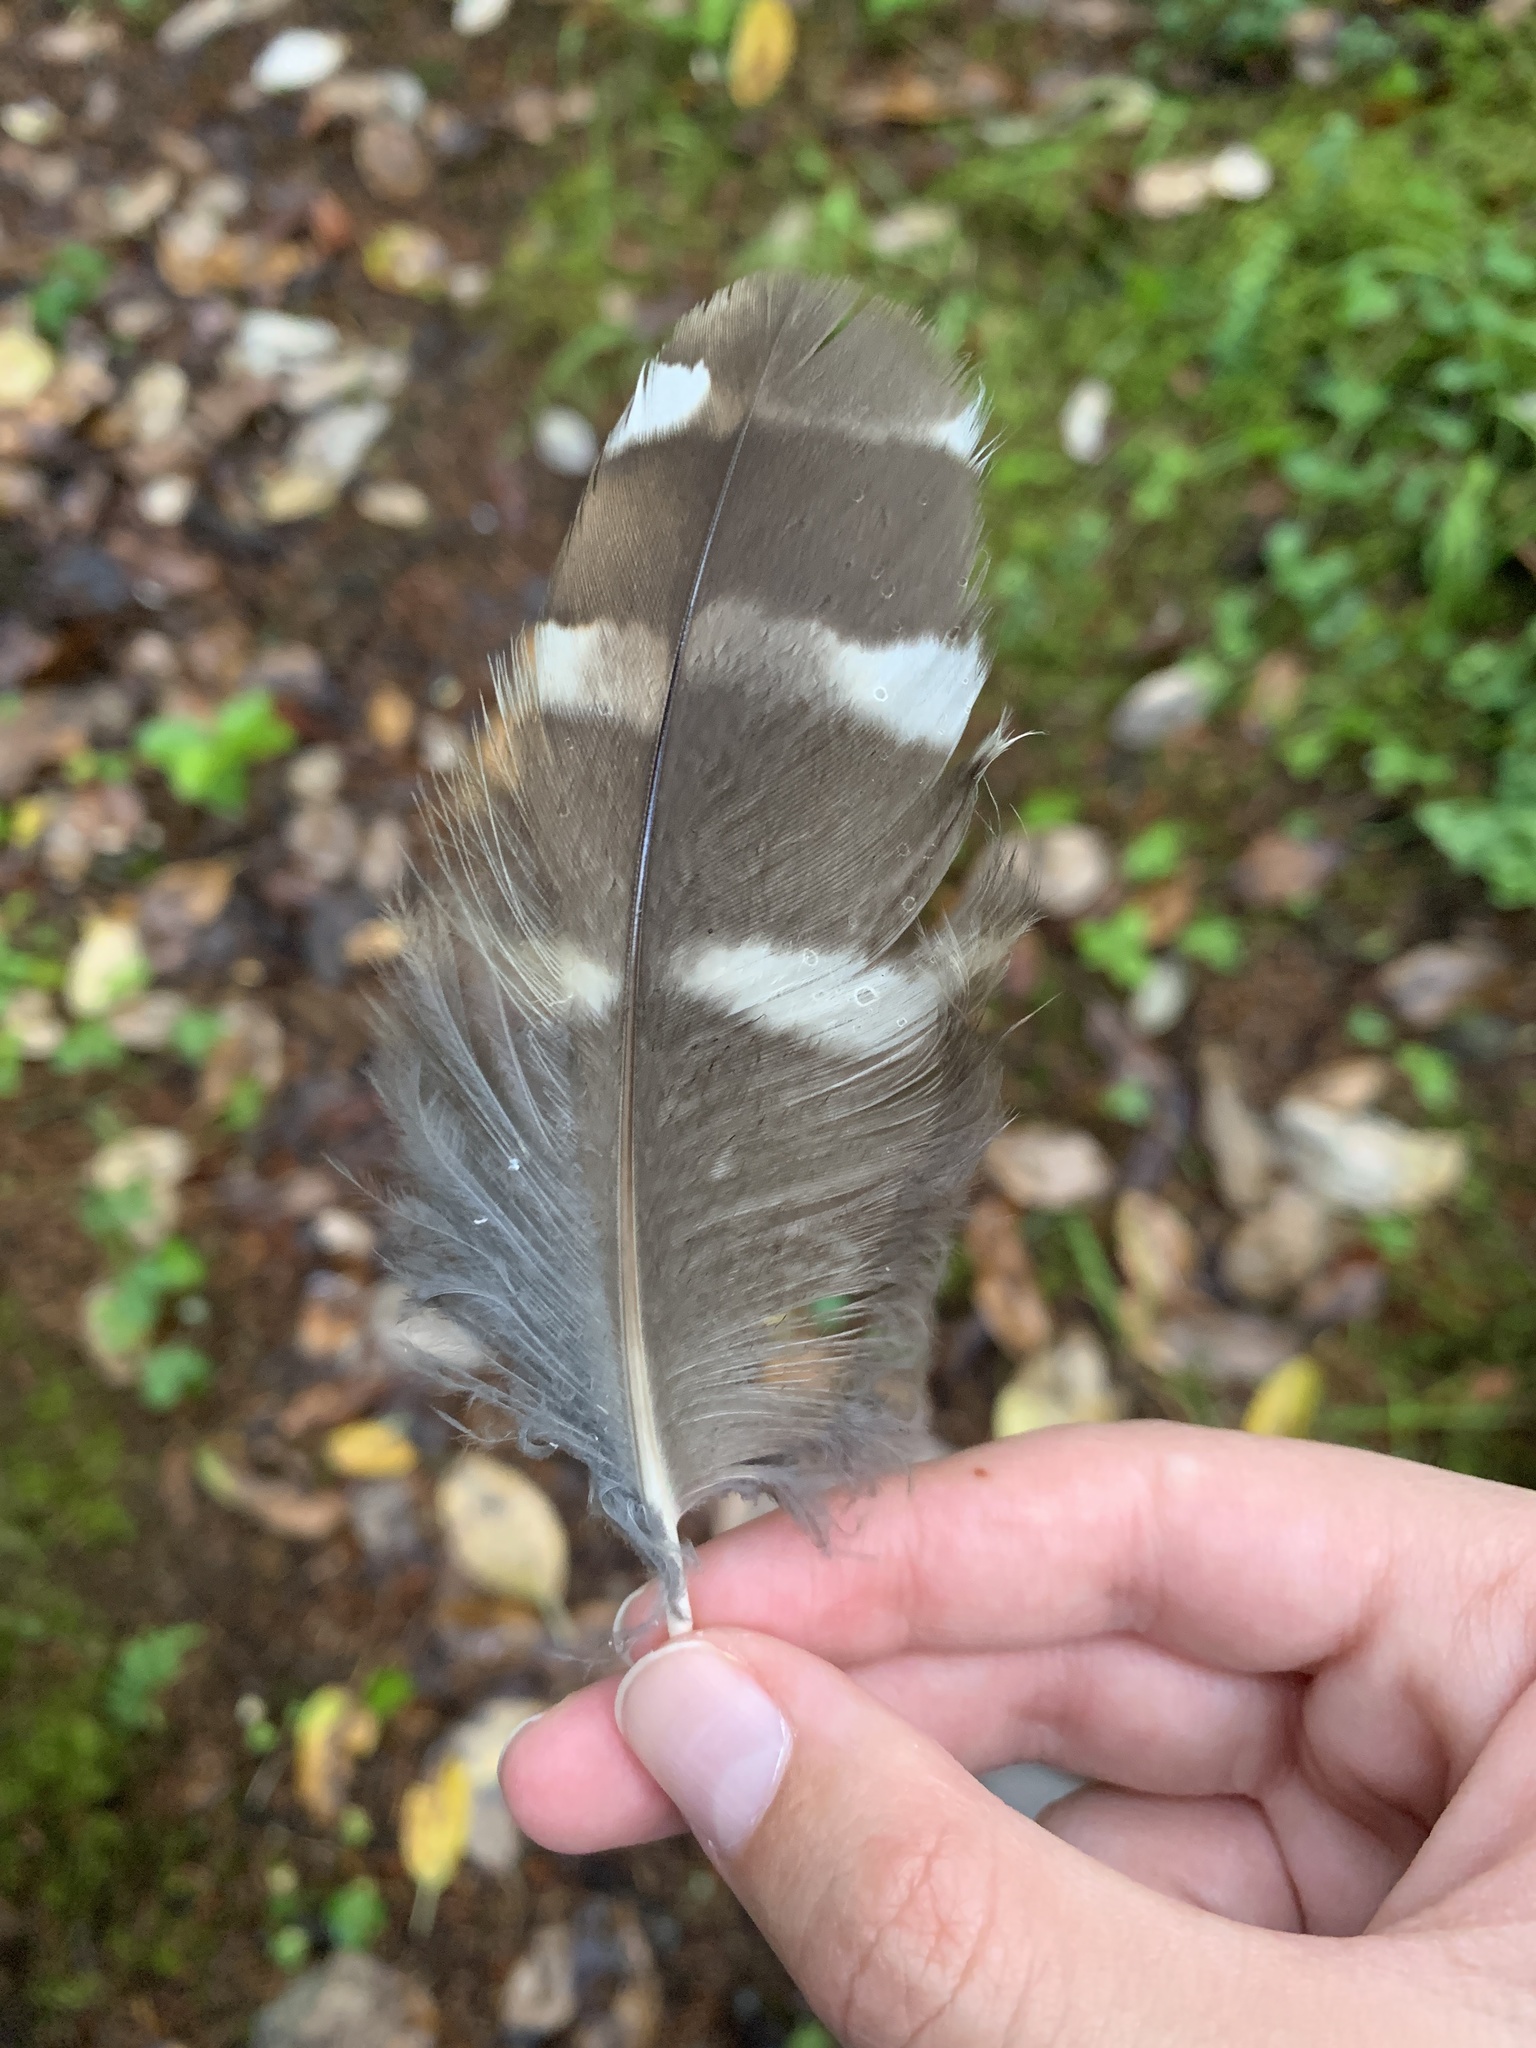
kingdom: Animalia
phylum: Chordata
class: Aves
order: Strigiformes
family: Strigidae
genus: Strix
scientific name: Strix varia
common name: Barred owl
